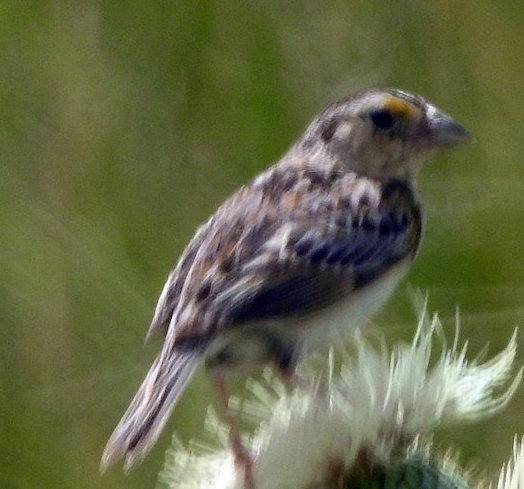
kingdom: Animalia
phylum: Chordata
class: Aves
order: Passeriformes
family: Passerellidae
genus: Ammodramus
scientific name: Ammodramus savannarum
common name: Grasshopper sparrow
